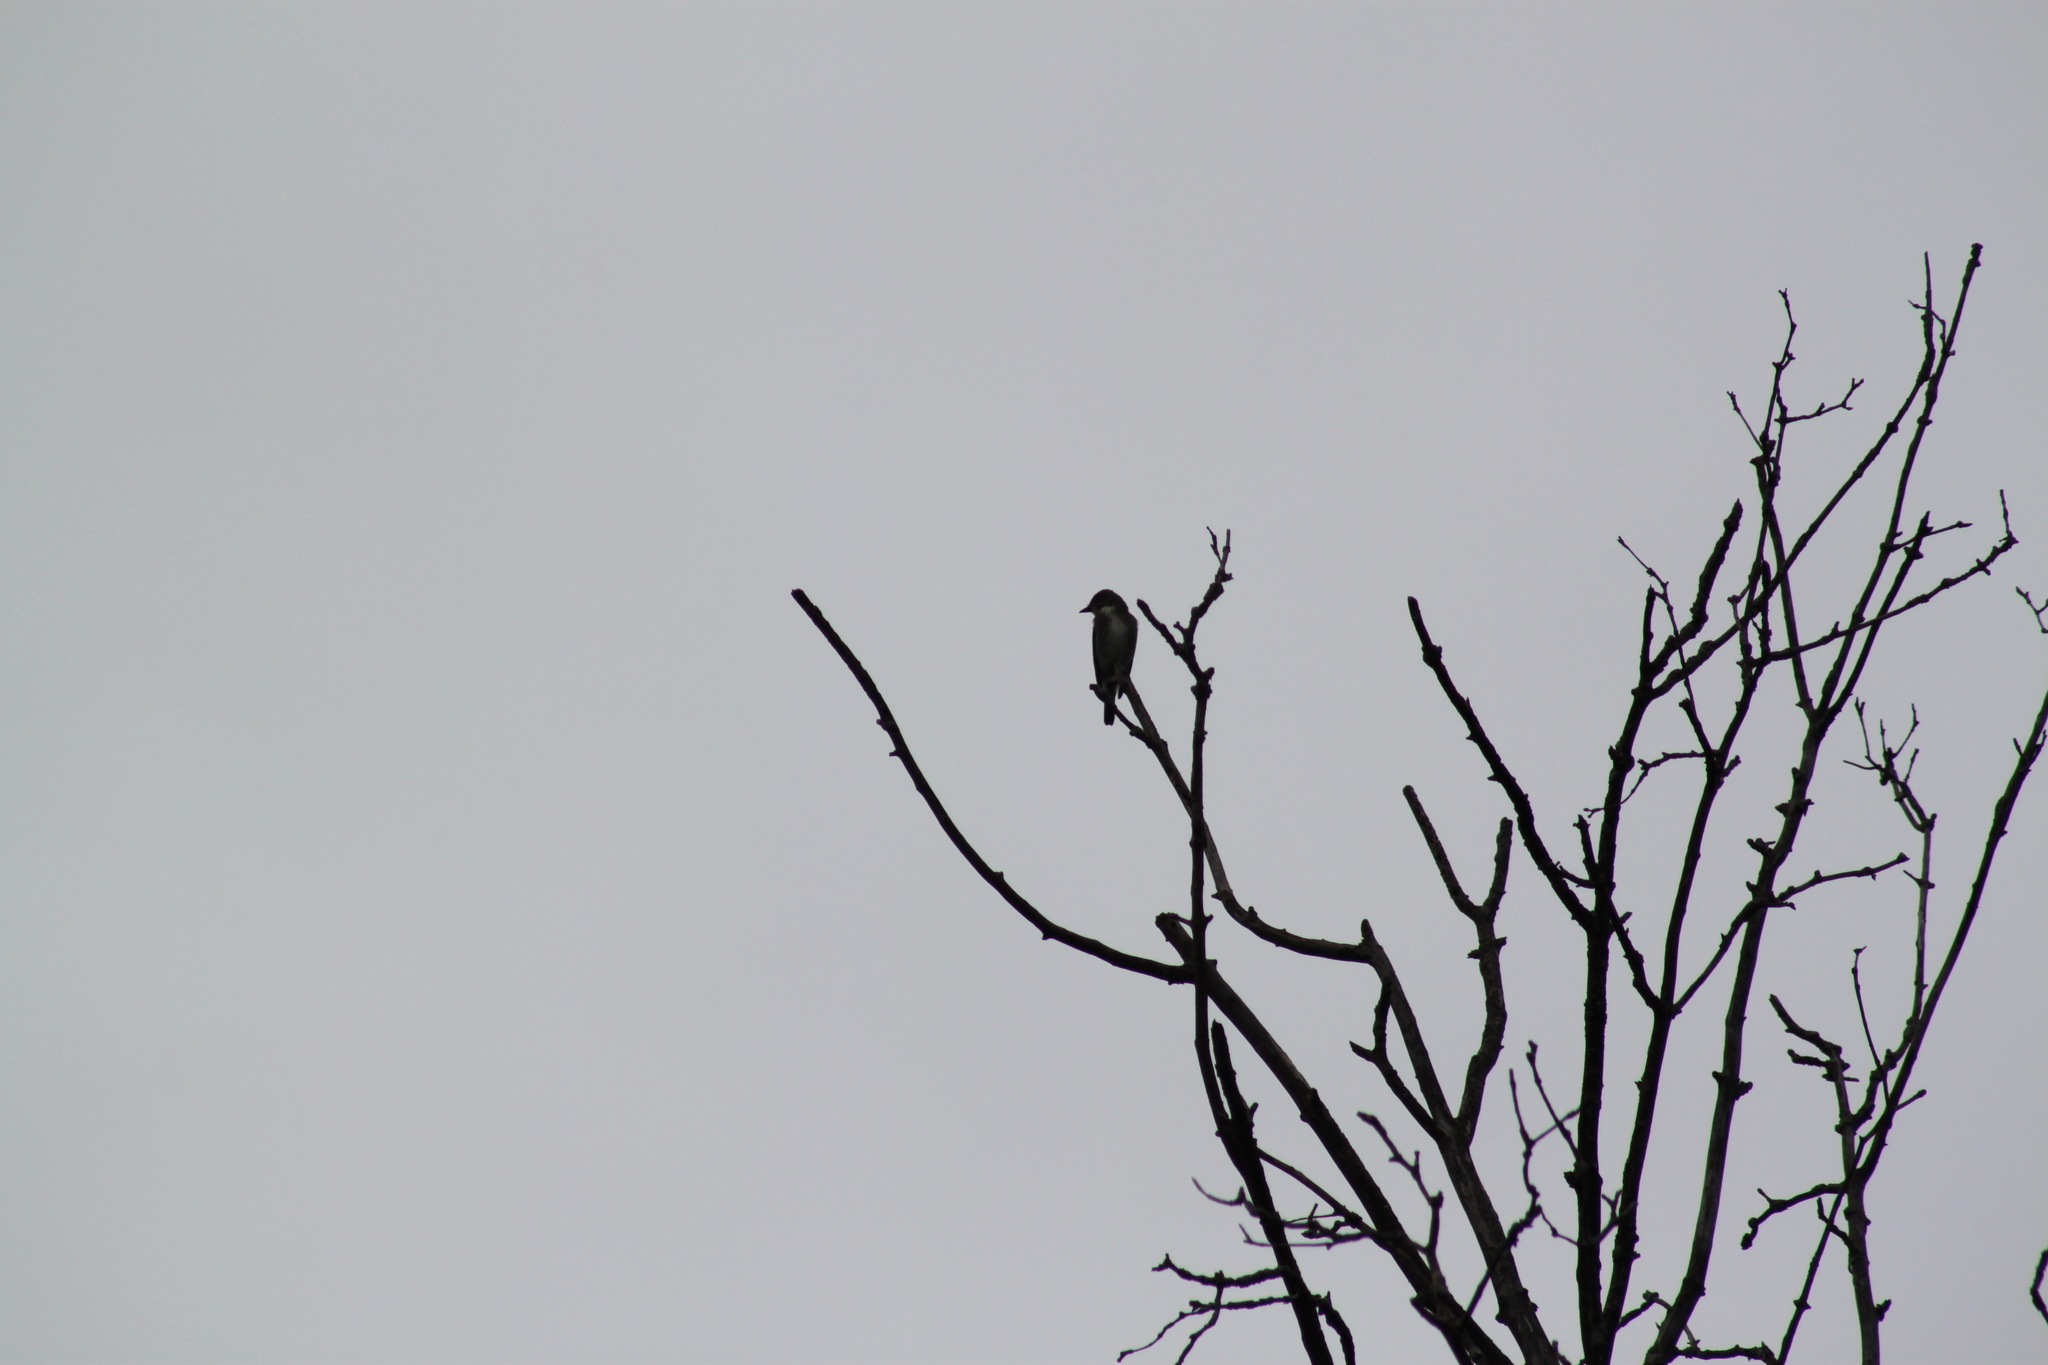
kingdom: Animalia
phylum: Chordata
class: Aves
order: Passeriformes
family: Tyrannidae
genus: Contopus
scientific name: Contopus cooperi
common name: Olive-sided flycatcher
